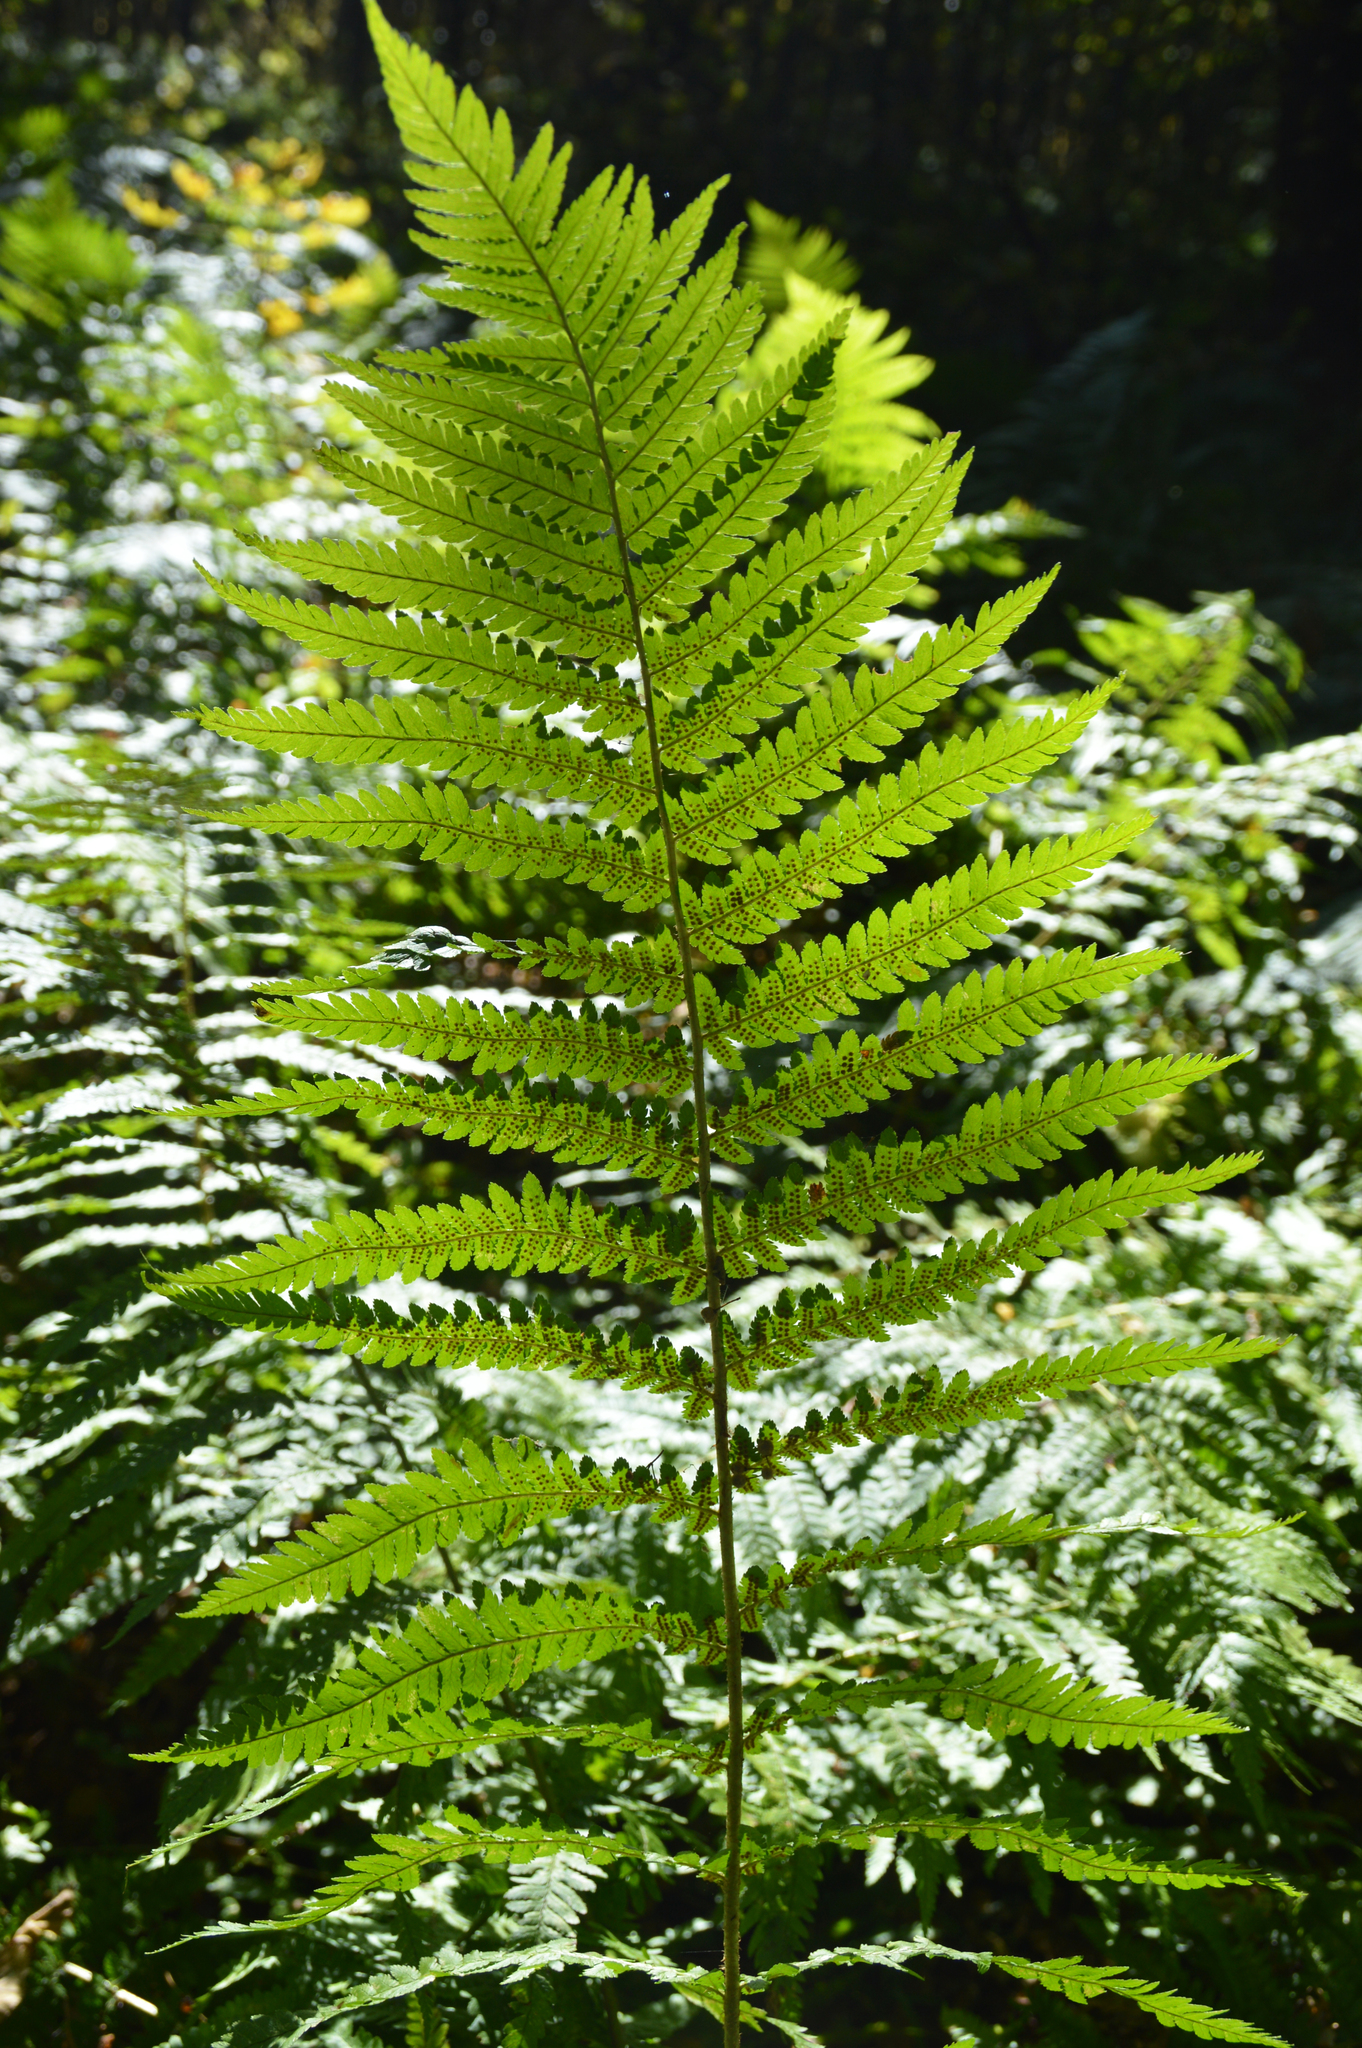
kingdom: Plantae
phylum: Tracheophyta
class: Polypodiopsida
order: Polypodiales
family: Dryopteridaceae
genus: Dryopteris
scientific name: Dryopteris filix-mas
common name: Male fern
